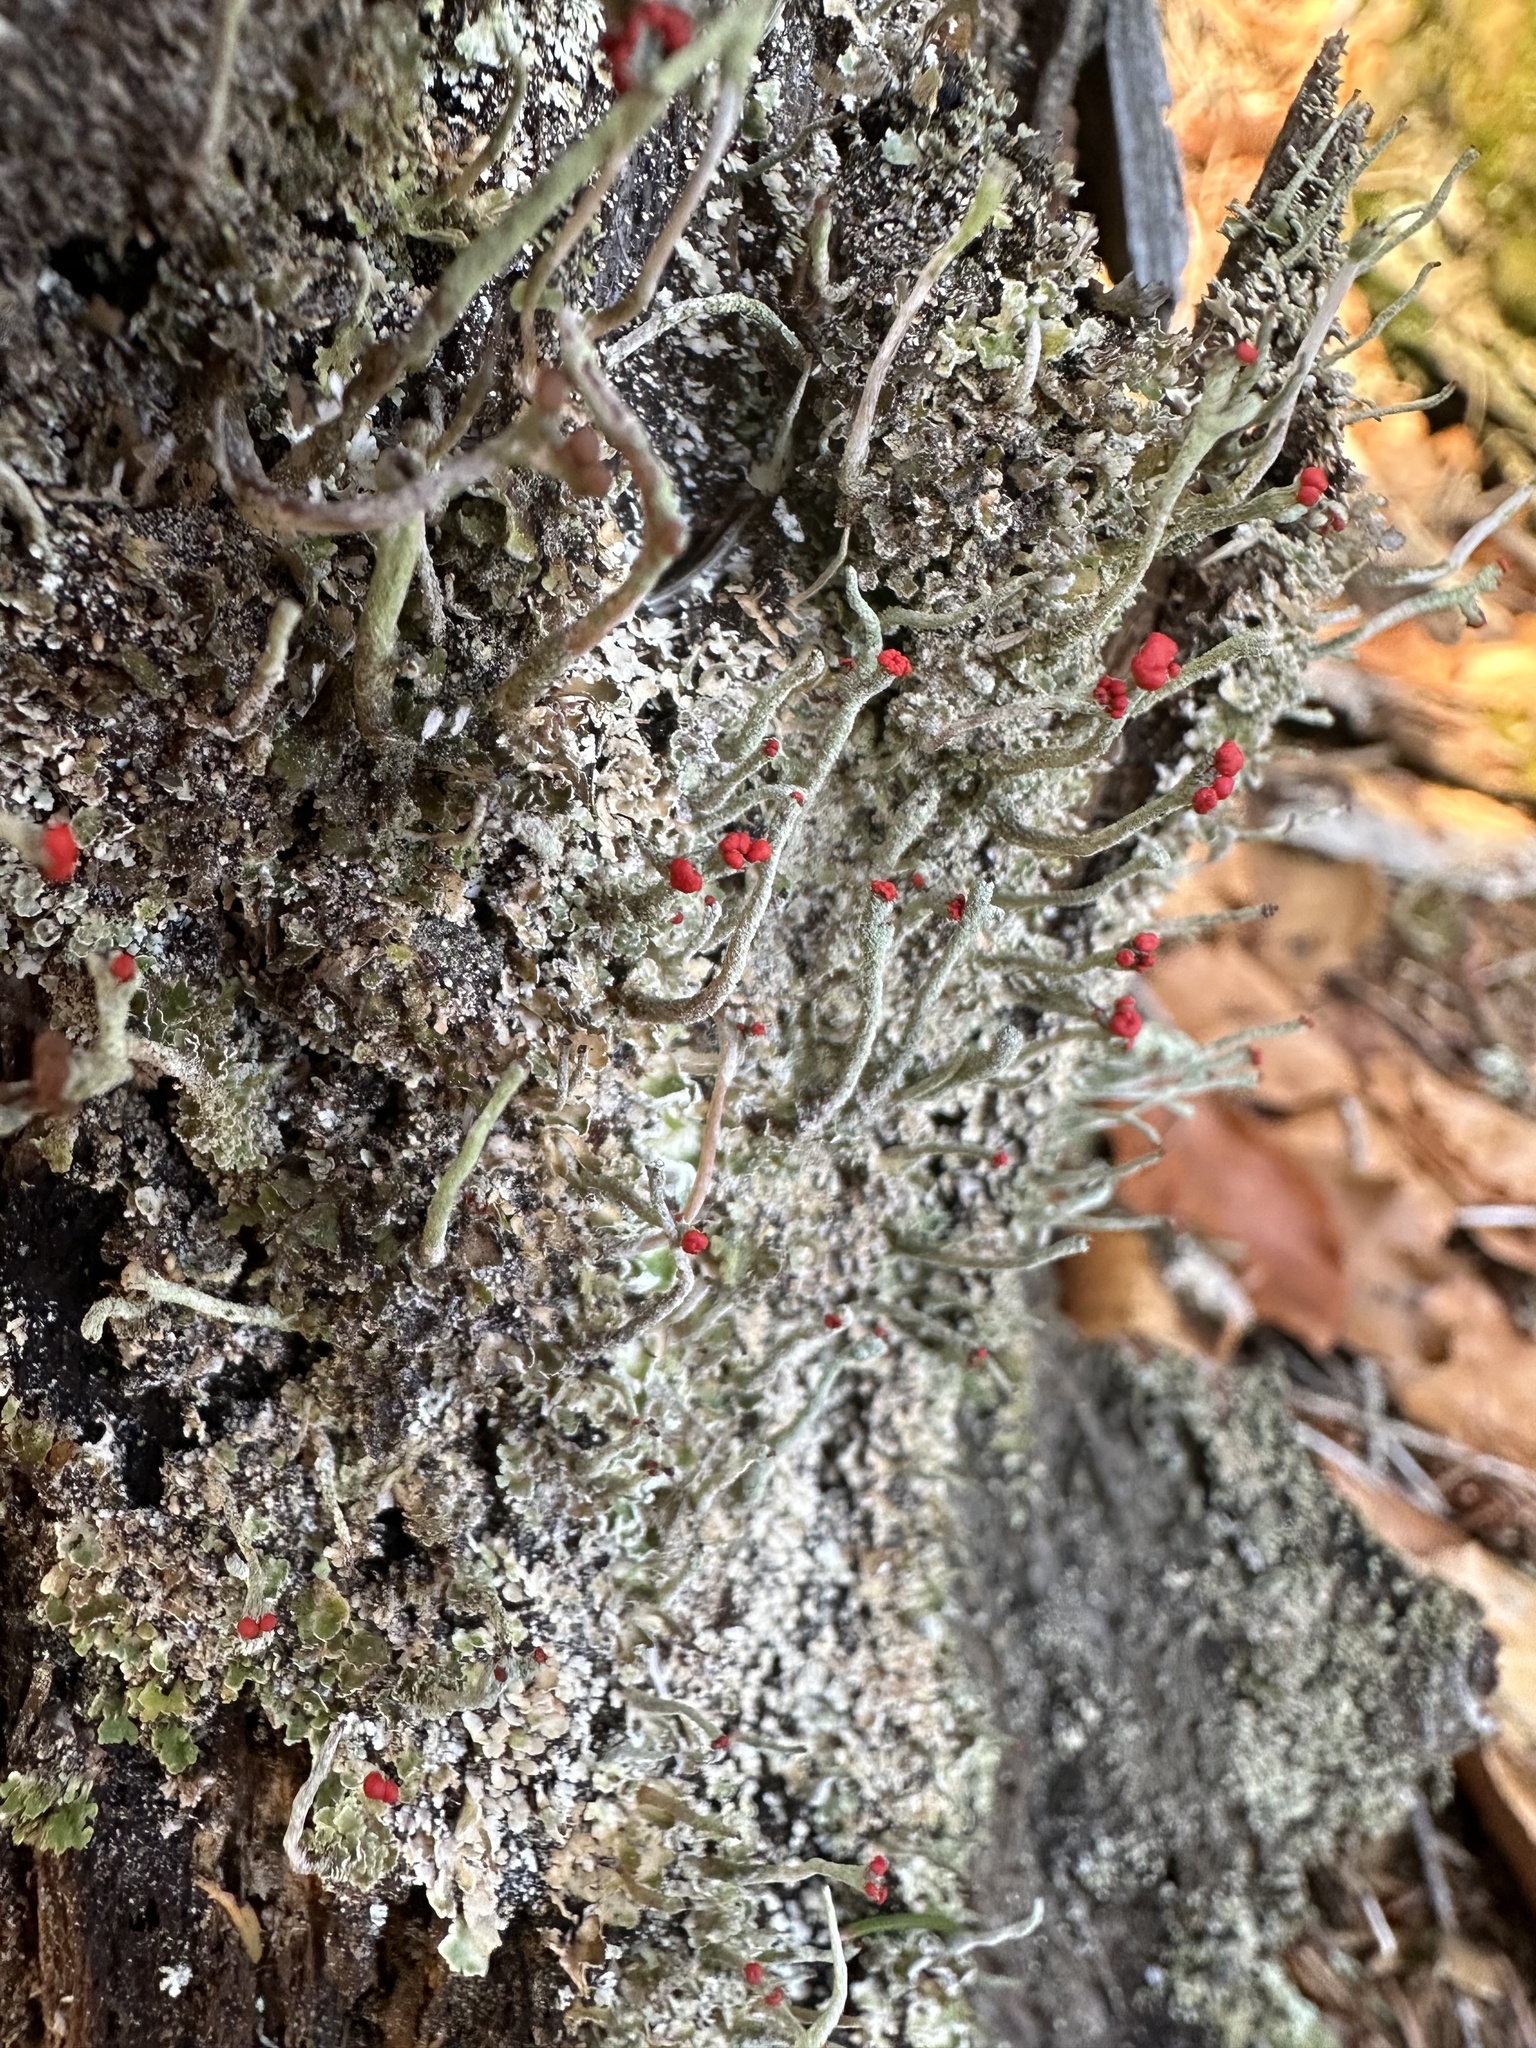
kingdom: Fungi
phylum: Ascomycota
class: Lecanoromycetes
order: Lecanorales
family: Cladoniaceae
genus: Cladonia
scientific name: Cladonia macilenta
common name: Lipstick powderhorn
